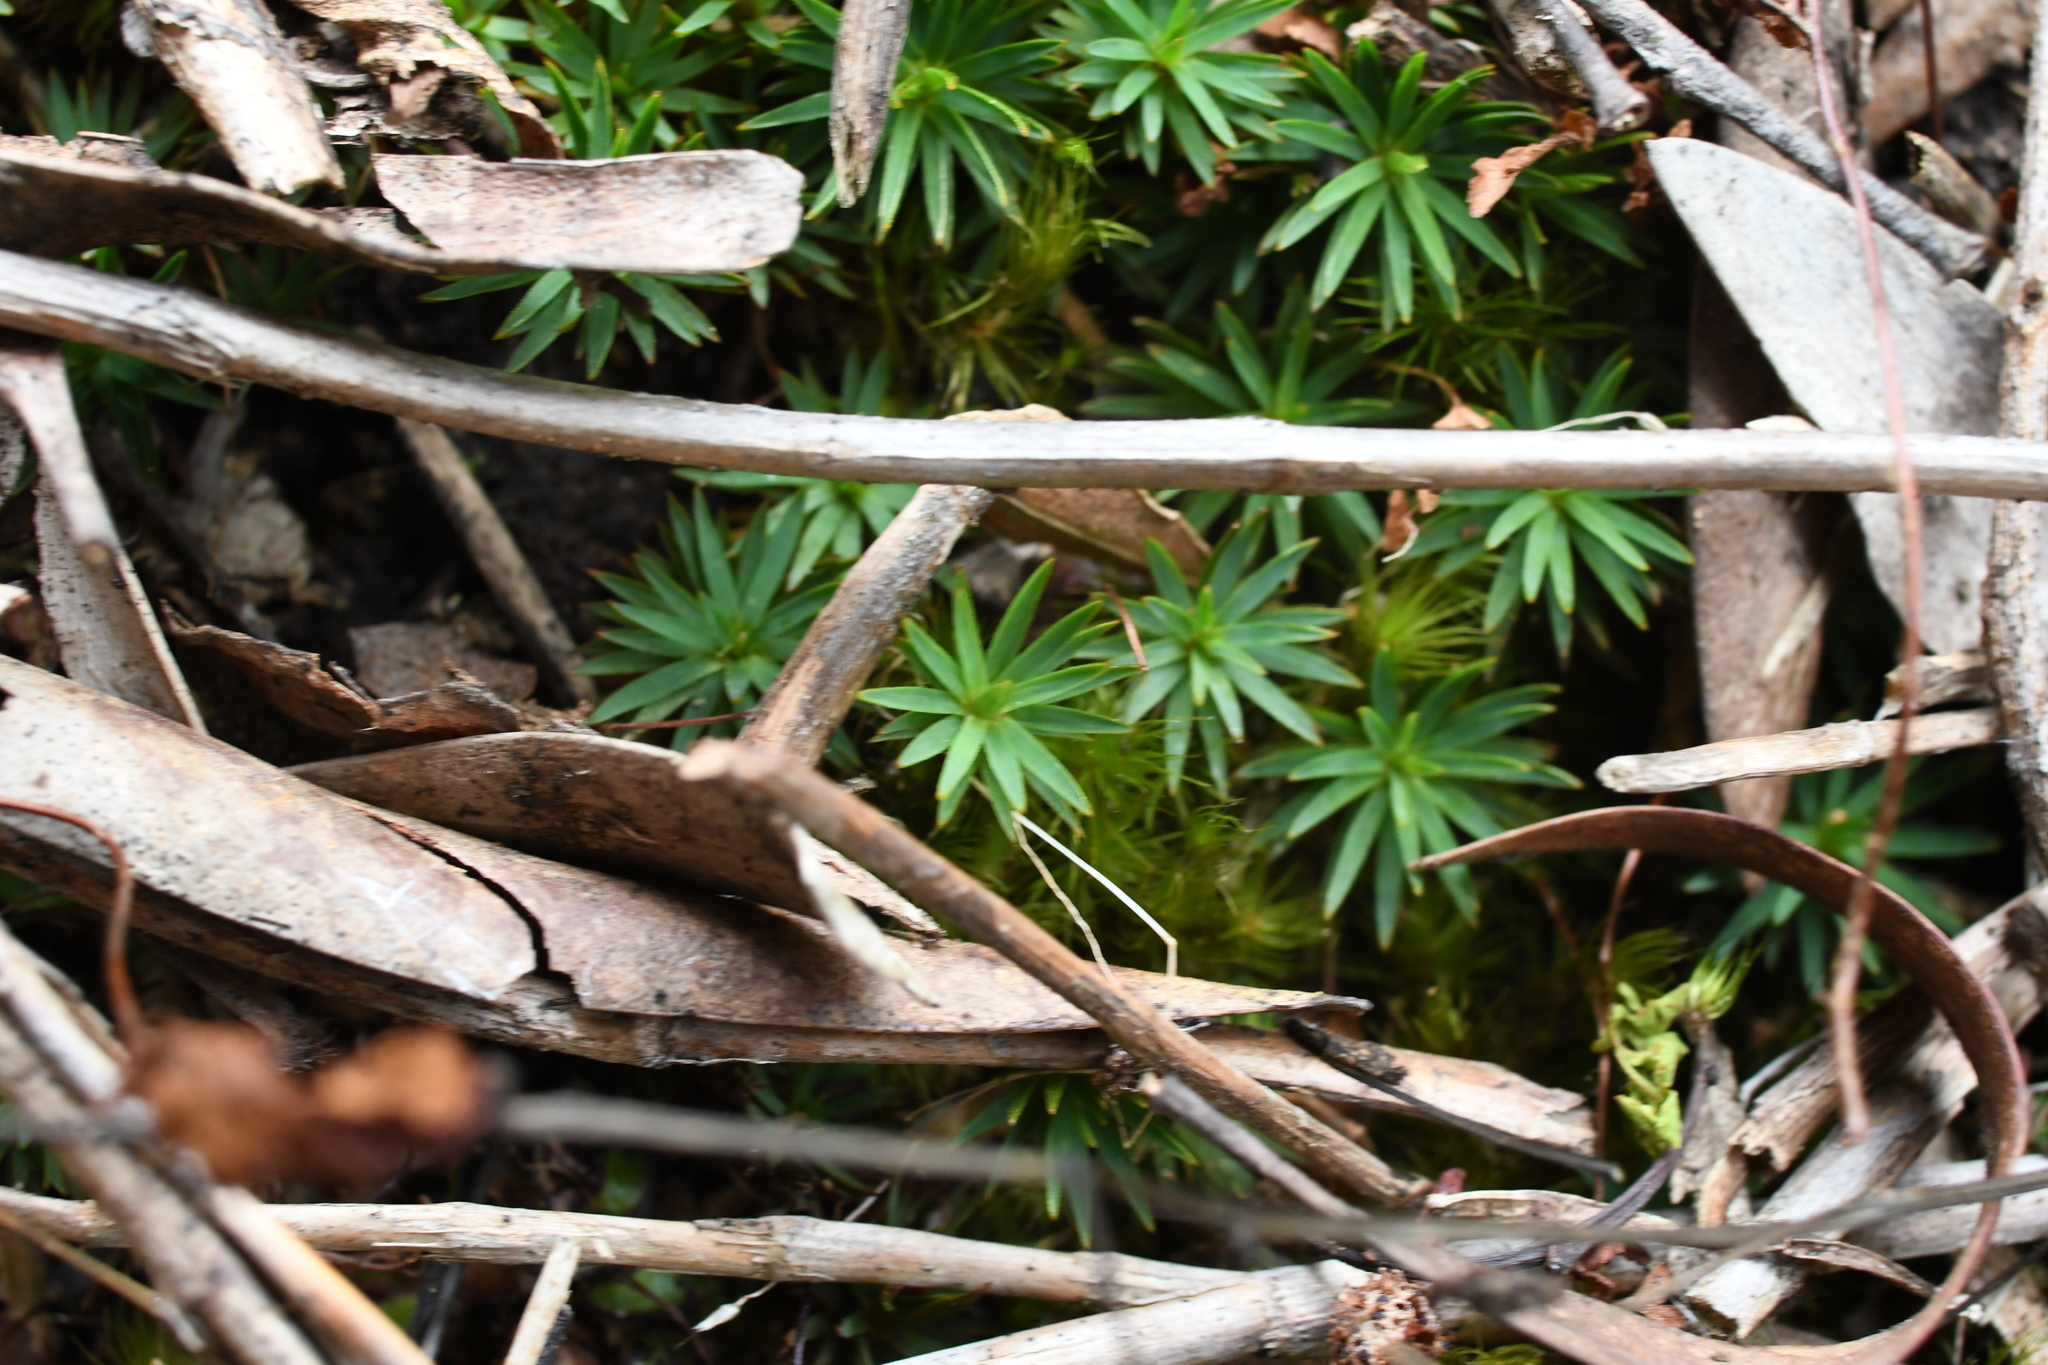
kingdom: Plantae
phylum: Bryophyta
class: Polytrichopsida
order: Polytrichales
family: Polytrichaceae
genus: Dawsonia
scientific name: Dawsonia longiseta
